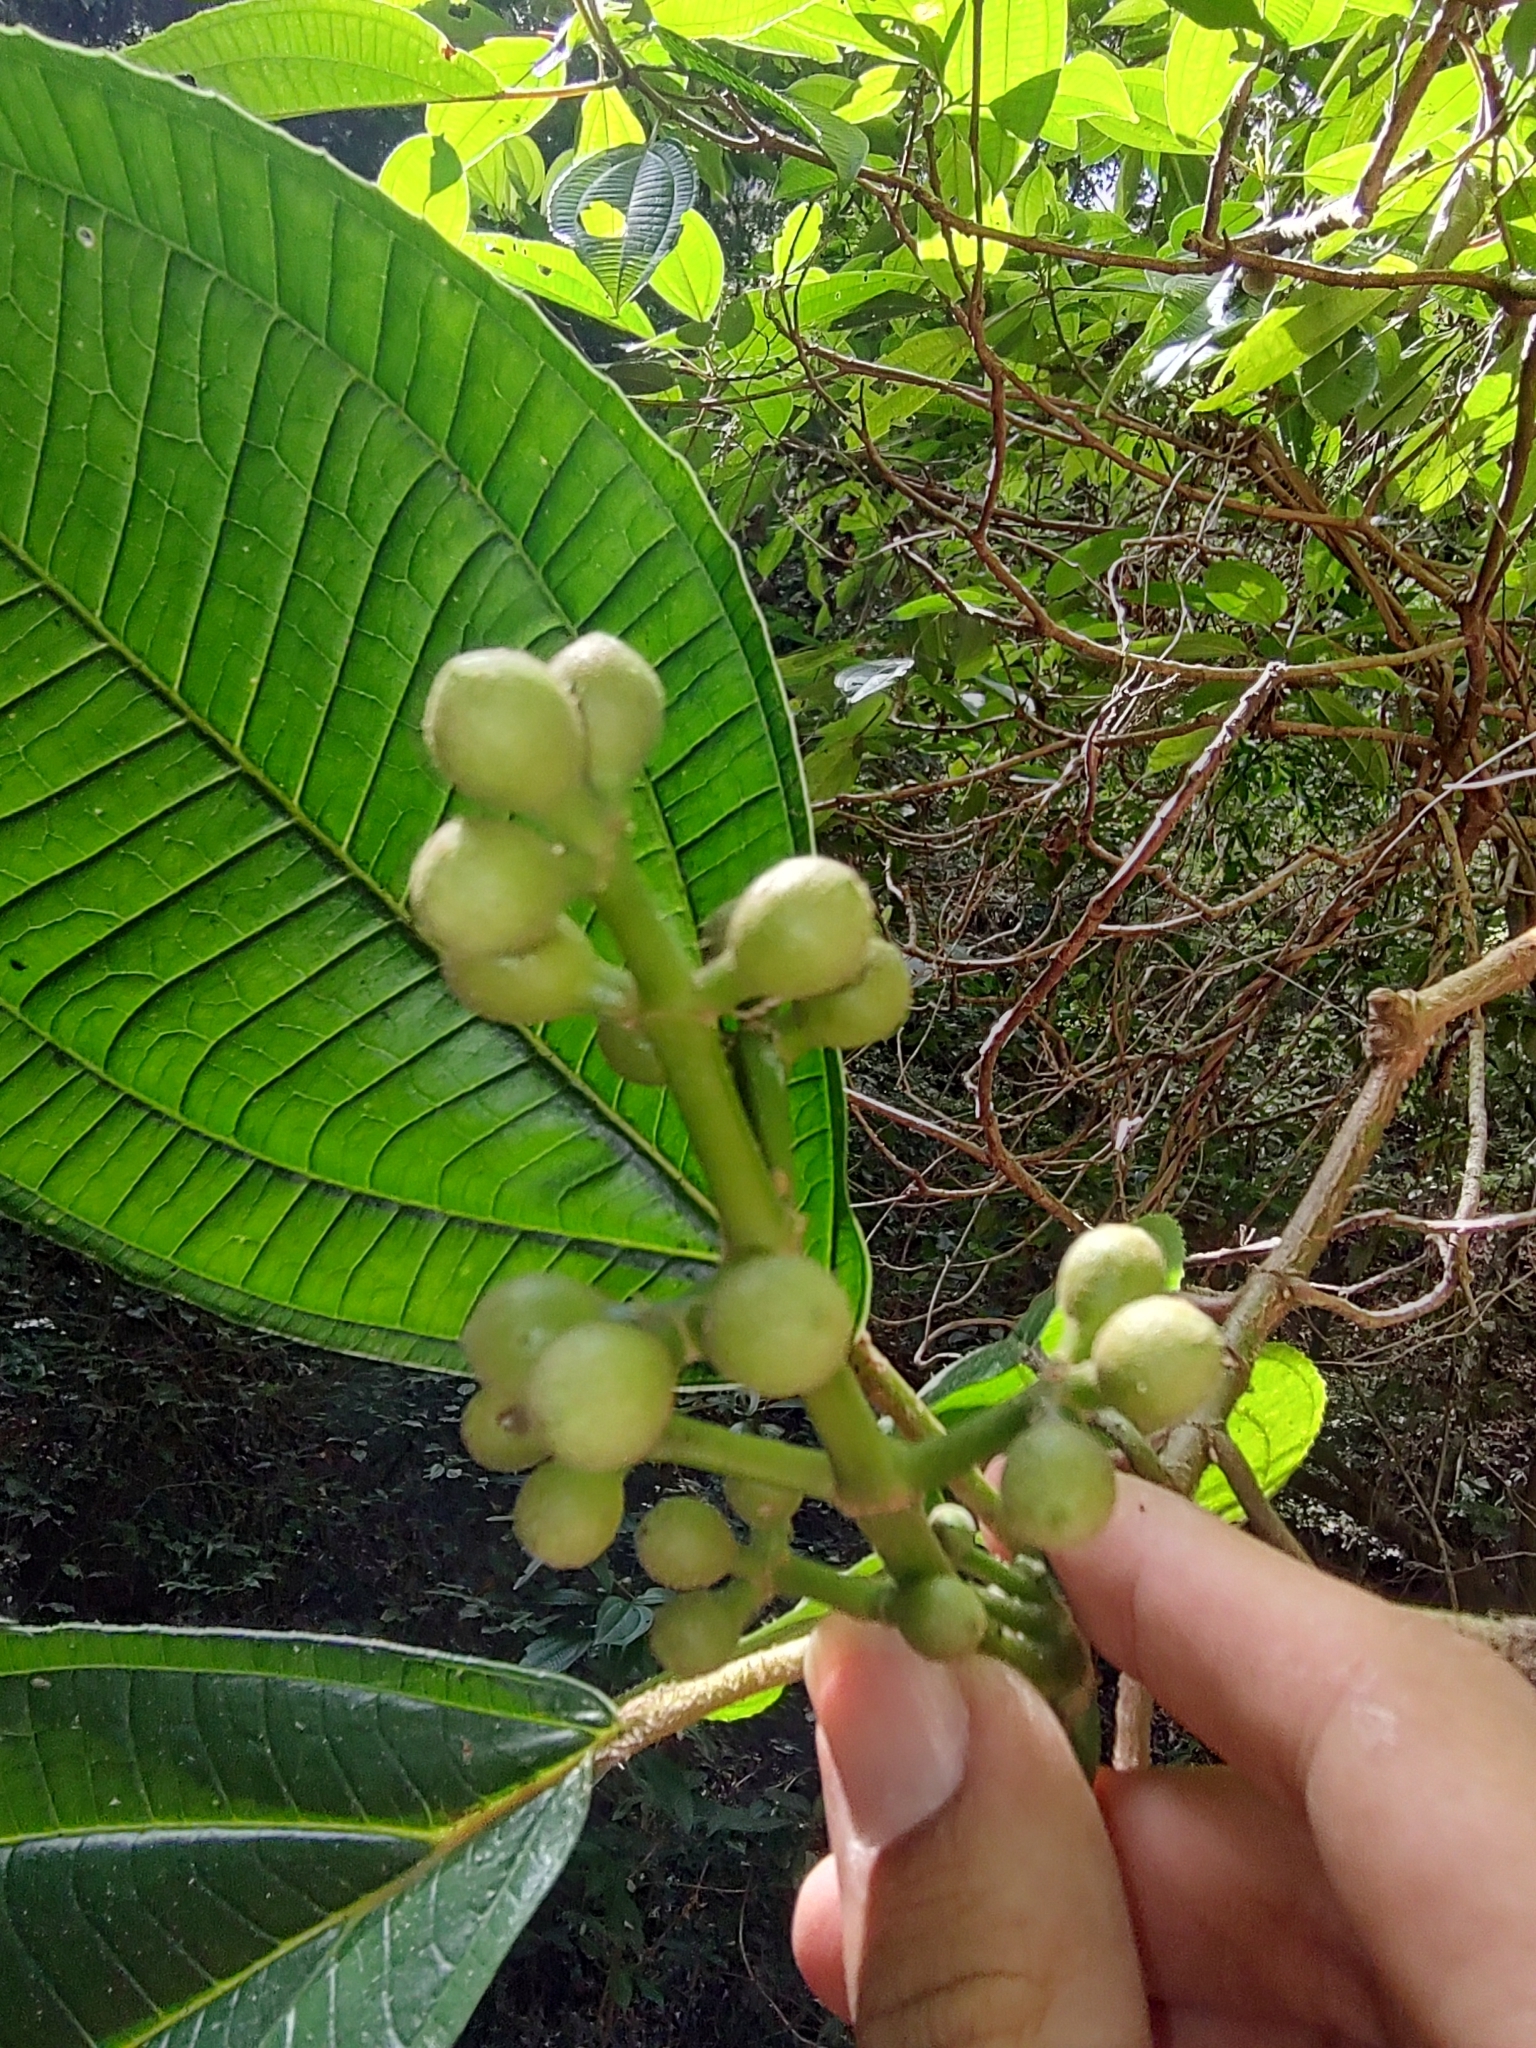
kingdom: Plantae
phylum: Tracheophyta
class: Magnoliopsida
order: Myrtales
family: Melastomataceae
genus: Miconia
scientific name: Miconia volcanalis
